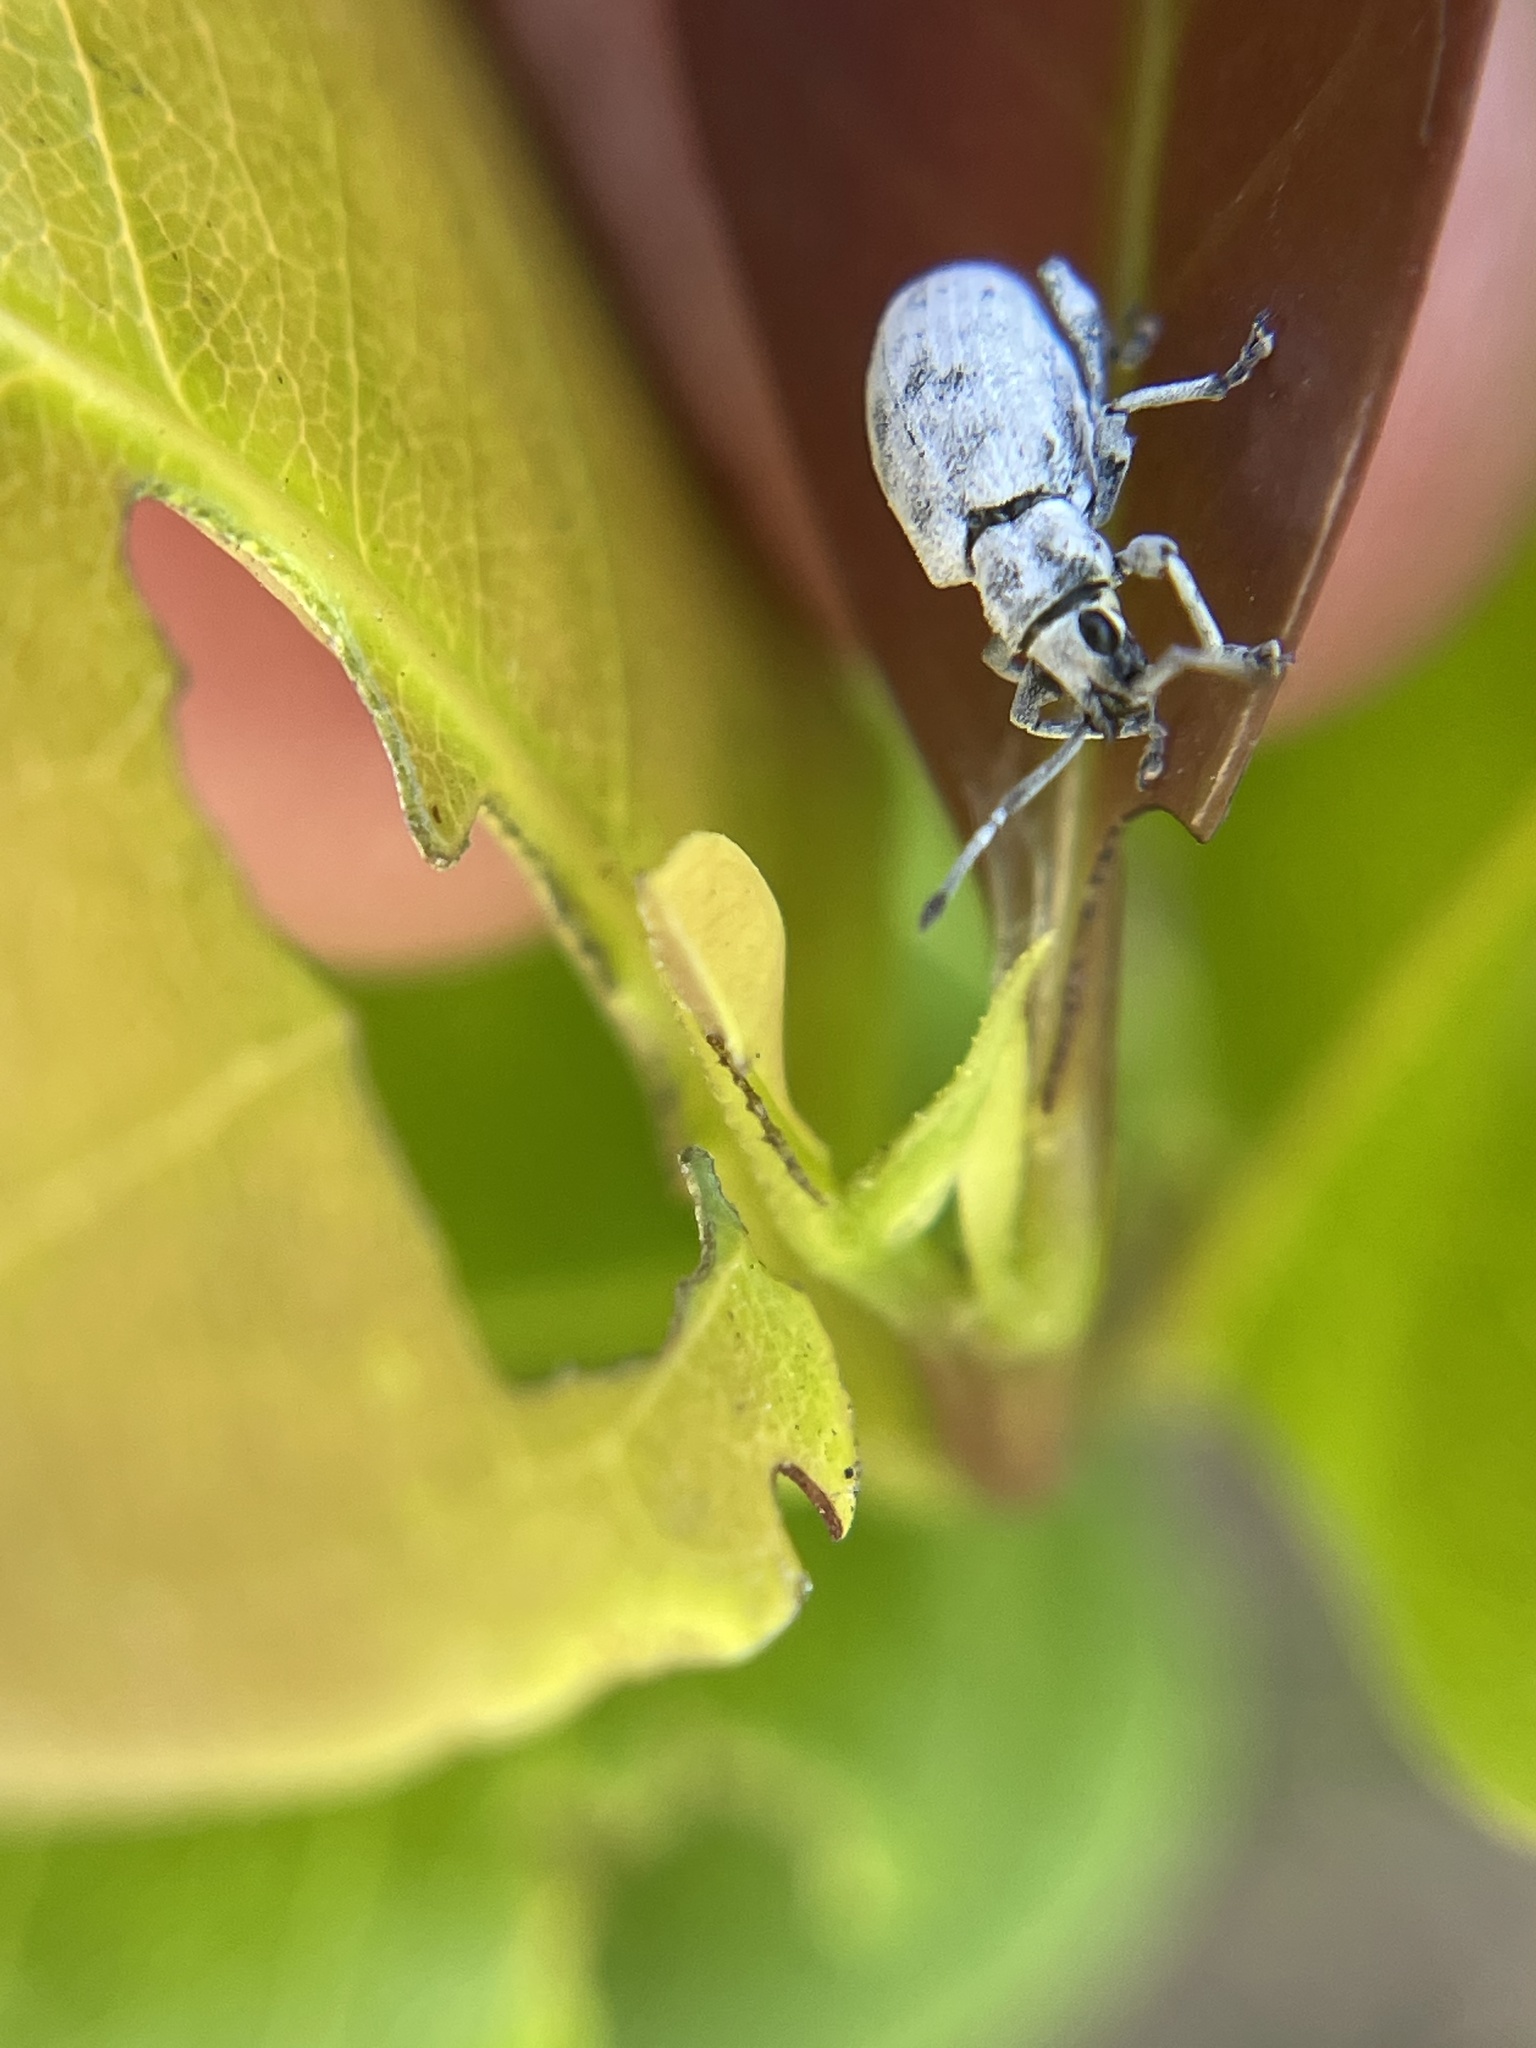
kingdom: Animalia
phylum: Arthropoda
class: Insecta
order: Coleoptera
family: Curculionidae
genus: Myllocerus
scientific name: Myllocerus undecimpustulatus
